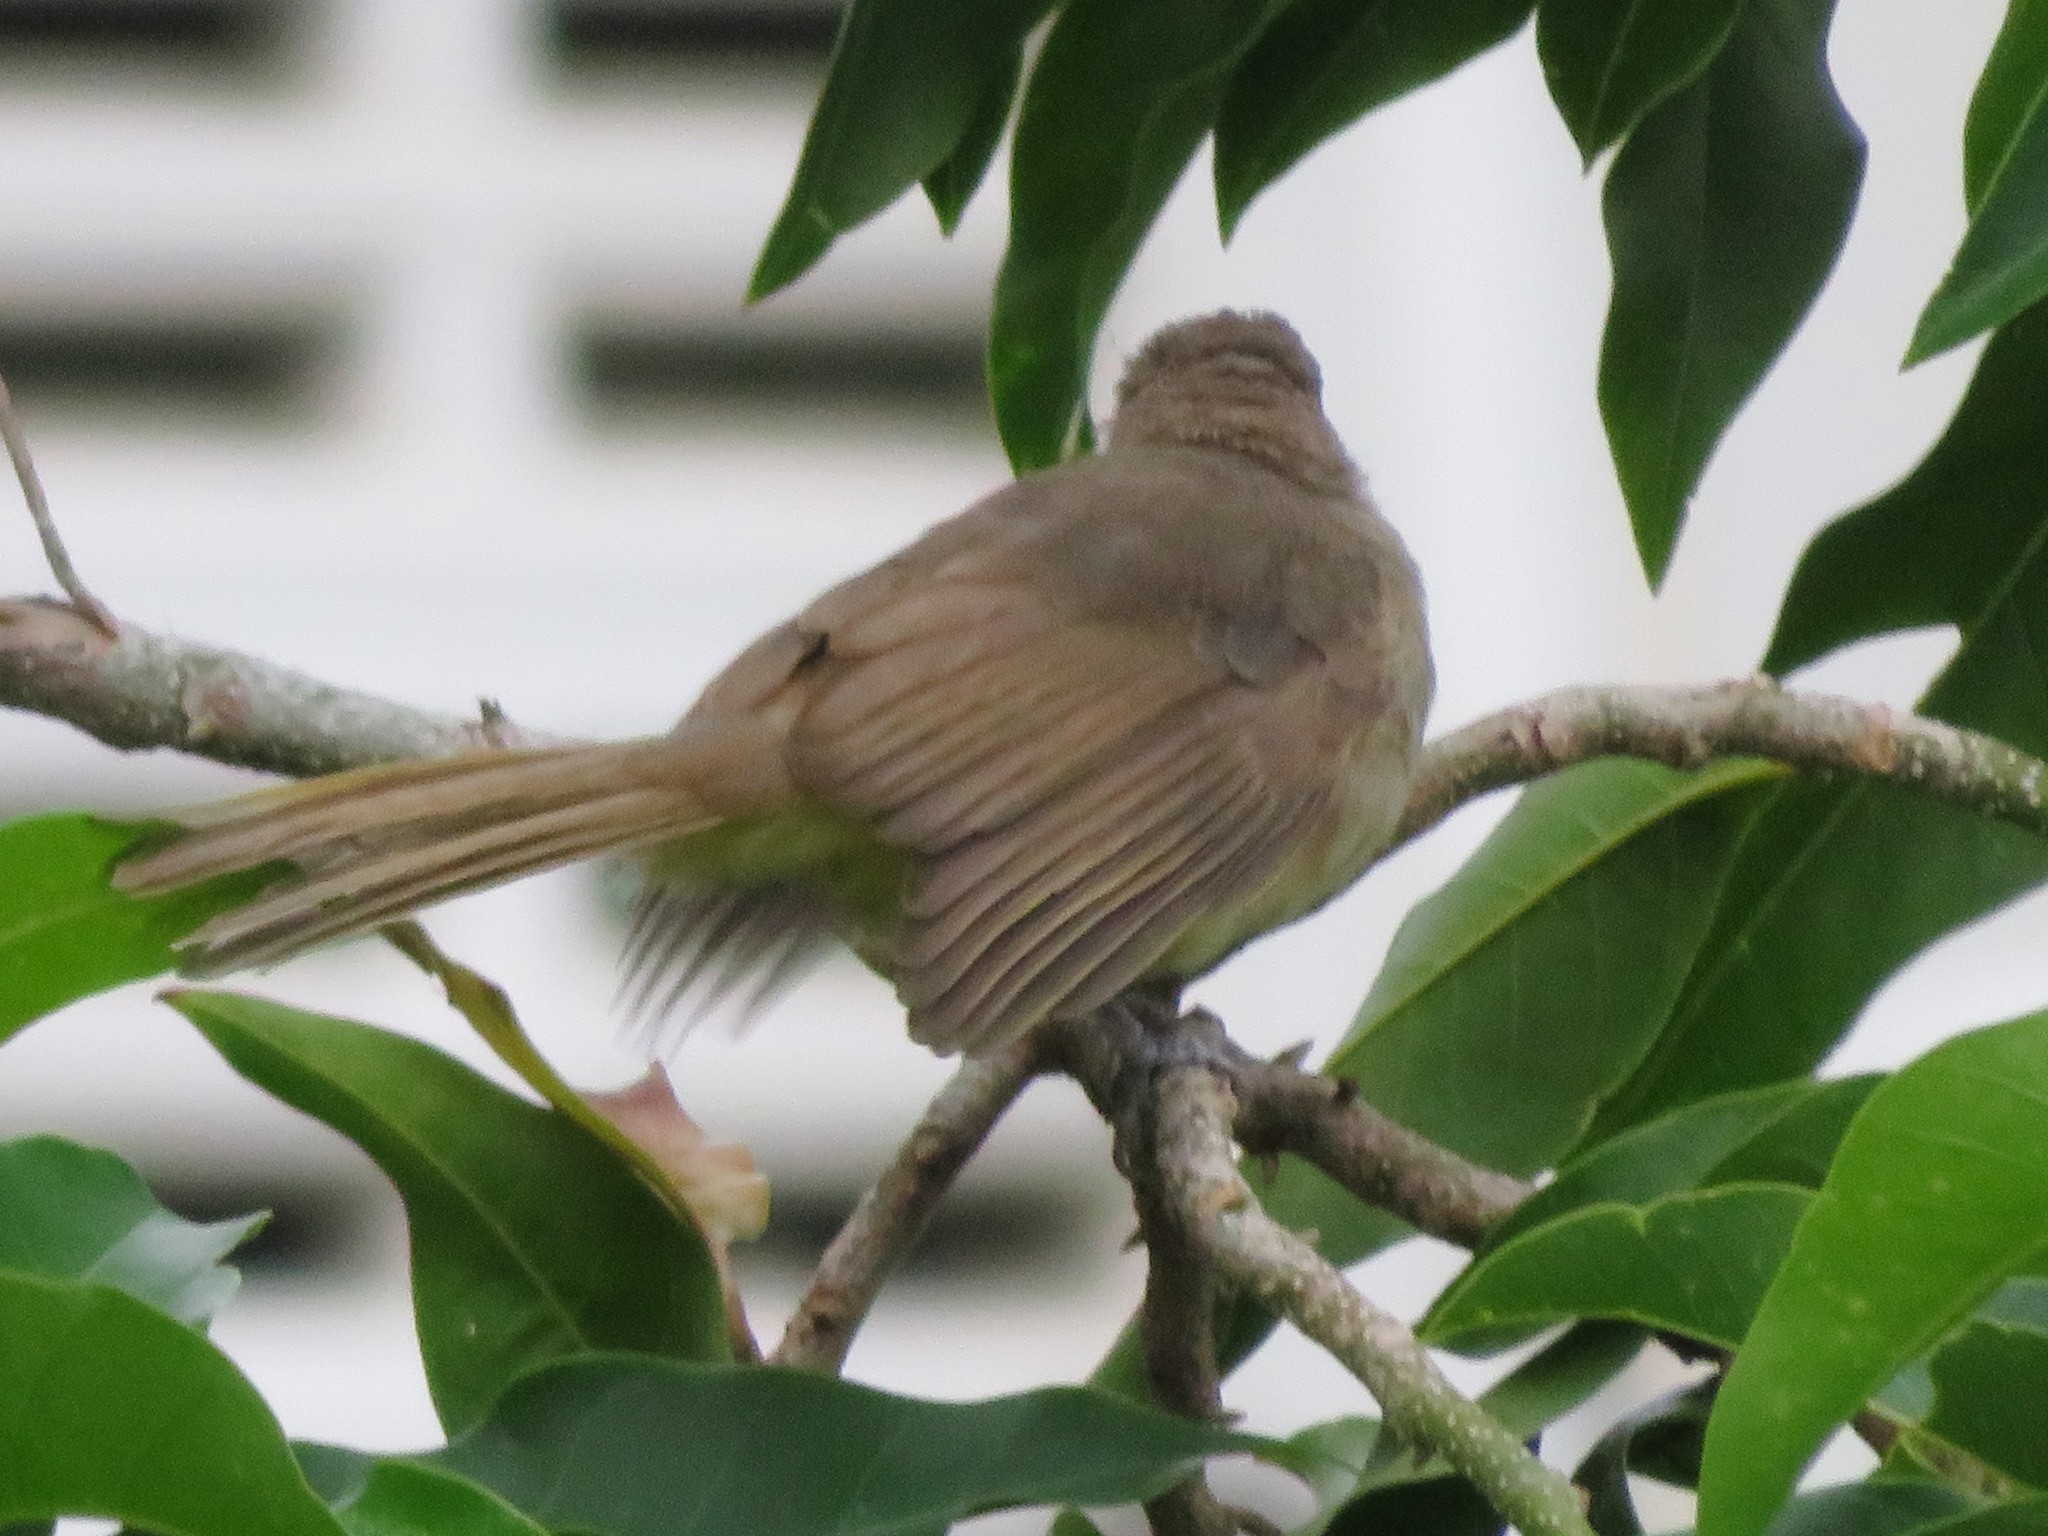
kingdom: Animalia
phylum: Chordata
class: Aves
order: Passeriformes
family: Pycnonotidae
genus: Pycnonotus
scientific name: Pycnonotus blanfordi
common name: Streak-eared bulbul
